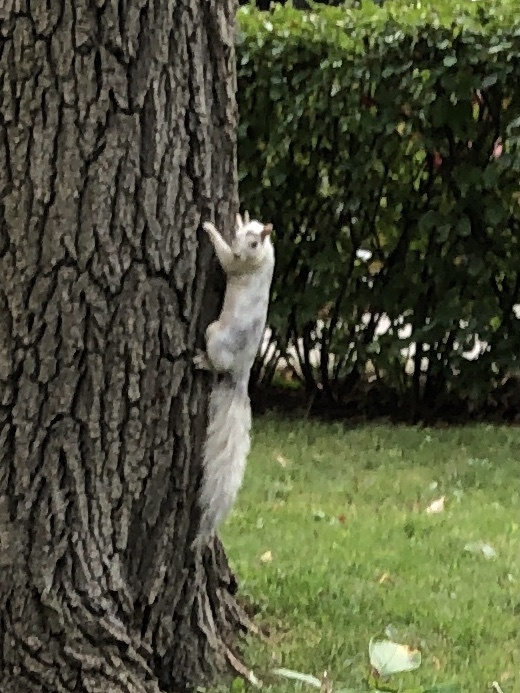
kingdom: Animalia
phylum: Chordata
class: Mammalia
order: Rodentia
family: Sciuridae
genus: Sciurus
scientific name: Sciurus carolinensis
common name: Eastern gray squirrel
